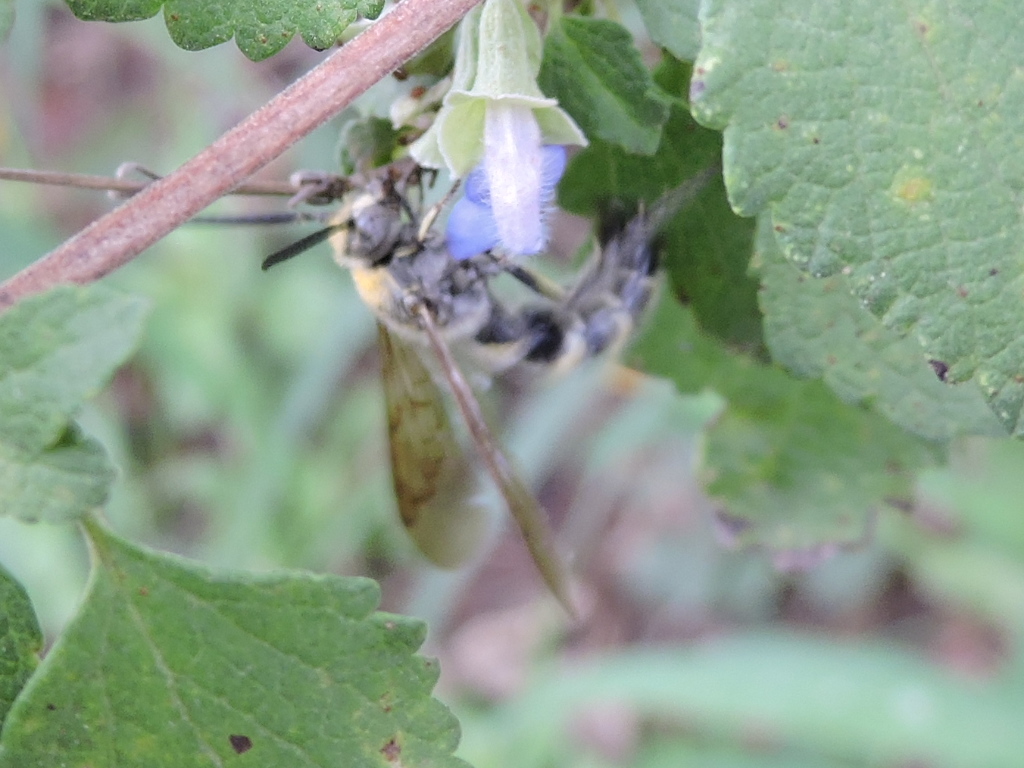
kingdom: Animalia
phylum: Arthropoda
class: Insecta
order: Hymenoptera
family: Scoliidae
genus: Dielis
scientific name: Dielis tolteca
